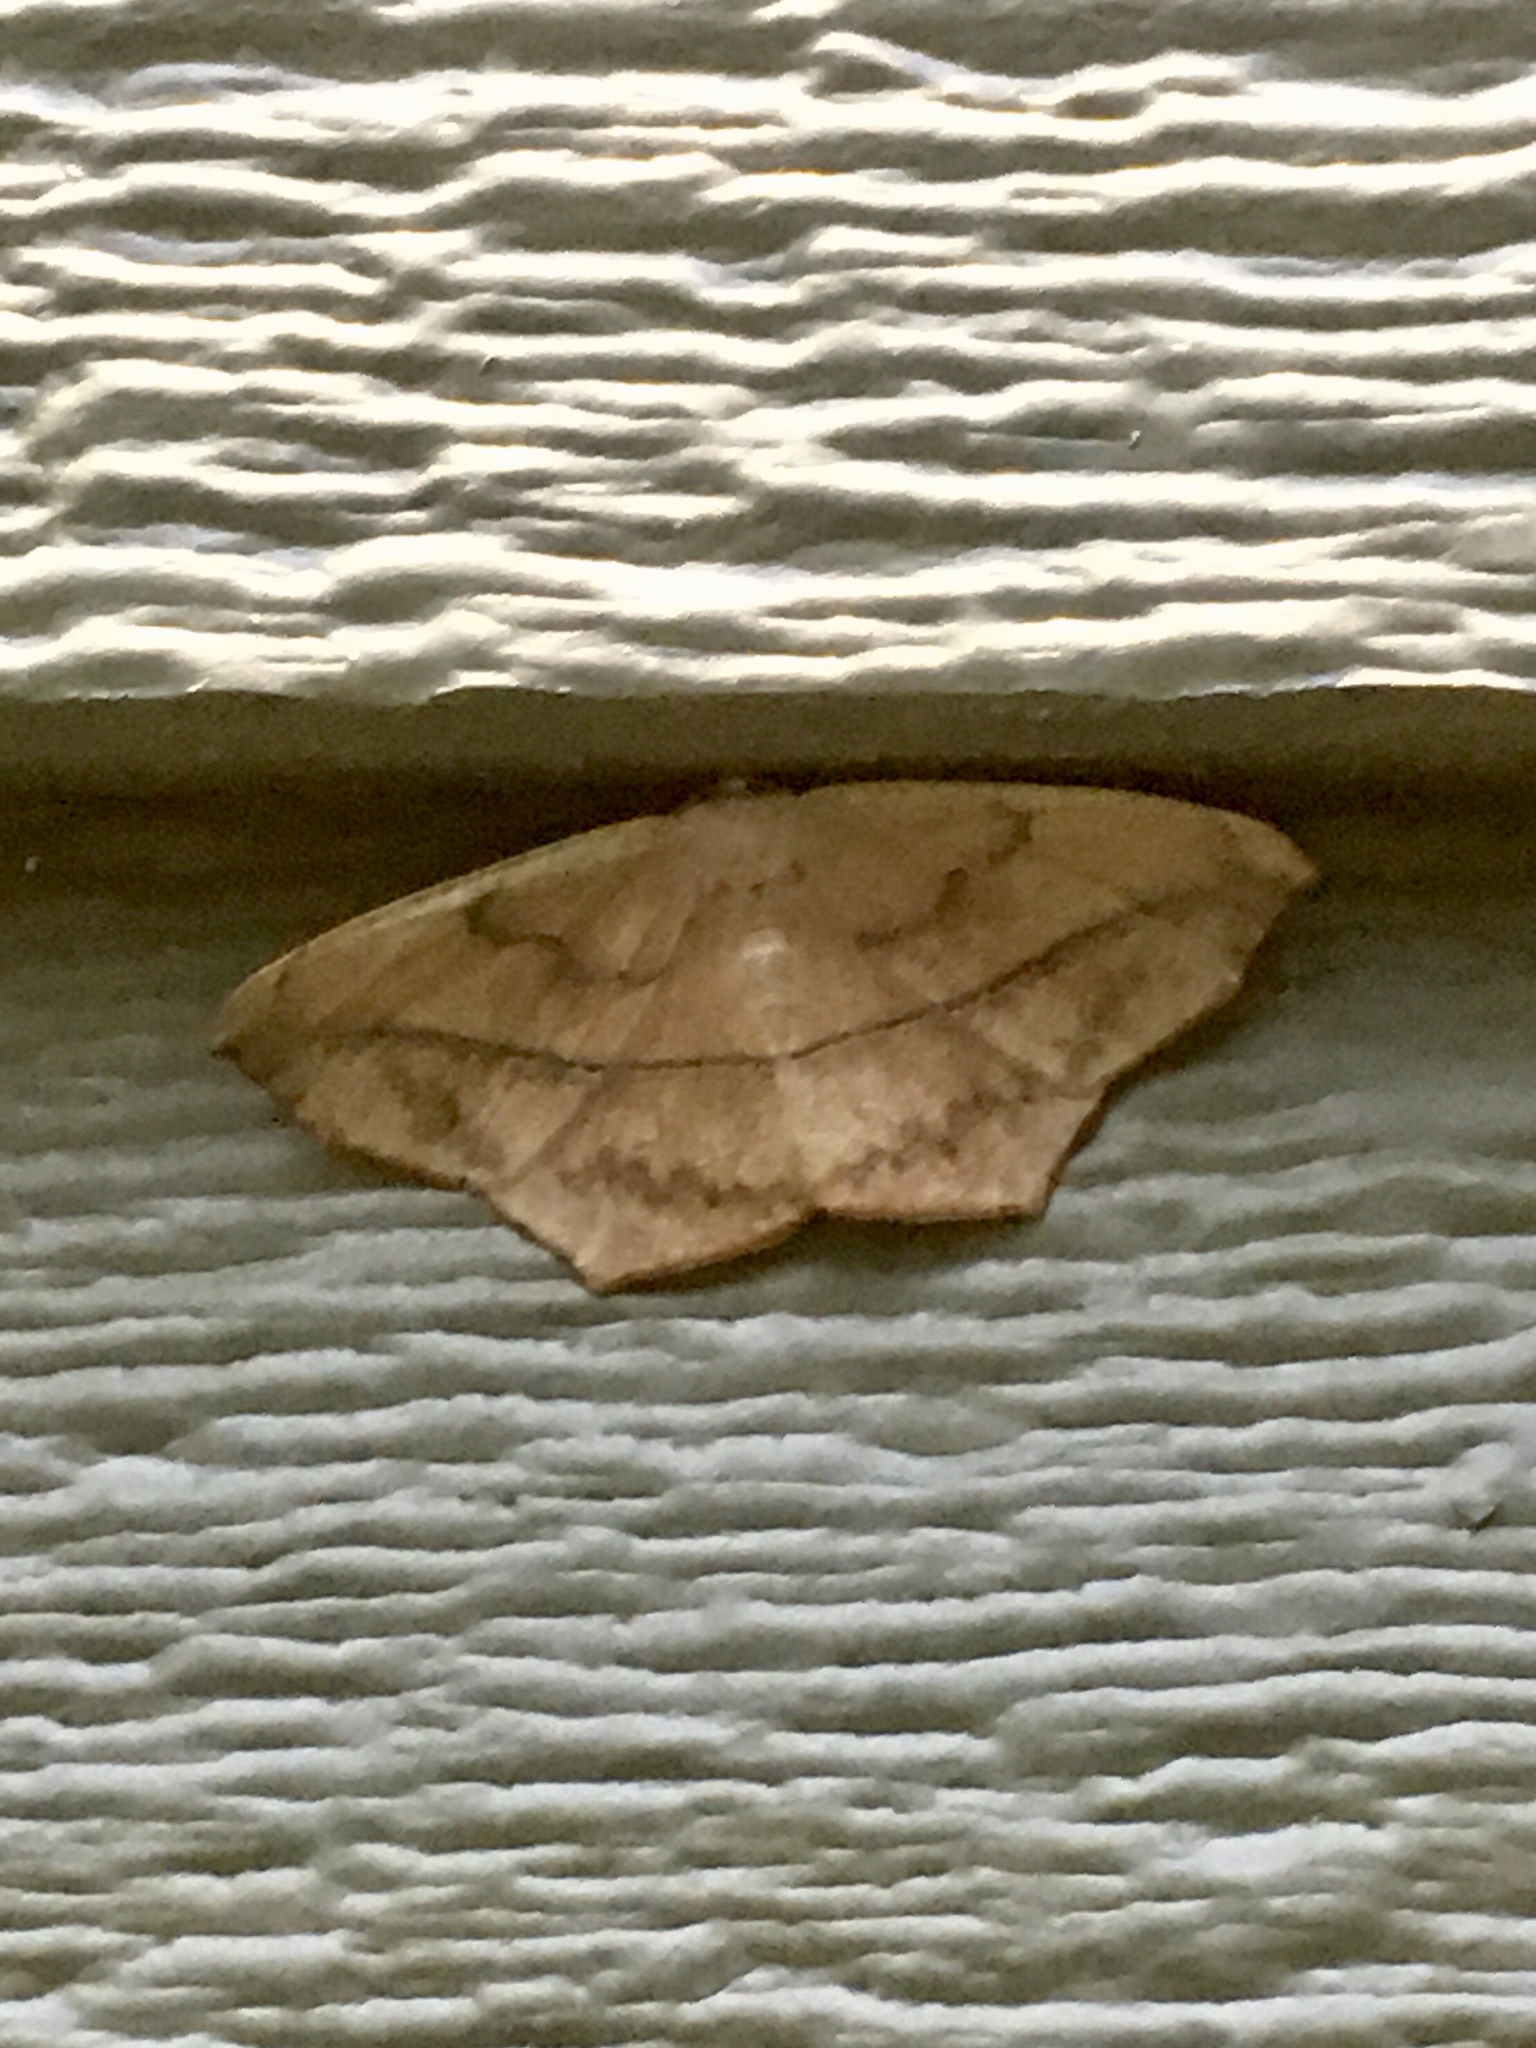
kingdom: Animalia
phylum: Arthropoda
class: Insecta
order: Lepidoptera
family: Geometridae
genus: Prochoerodes
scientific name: Prochoerodes lineola
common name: Large maple spanworm
